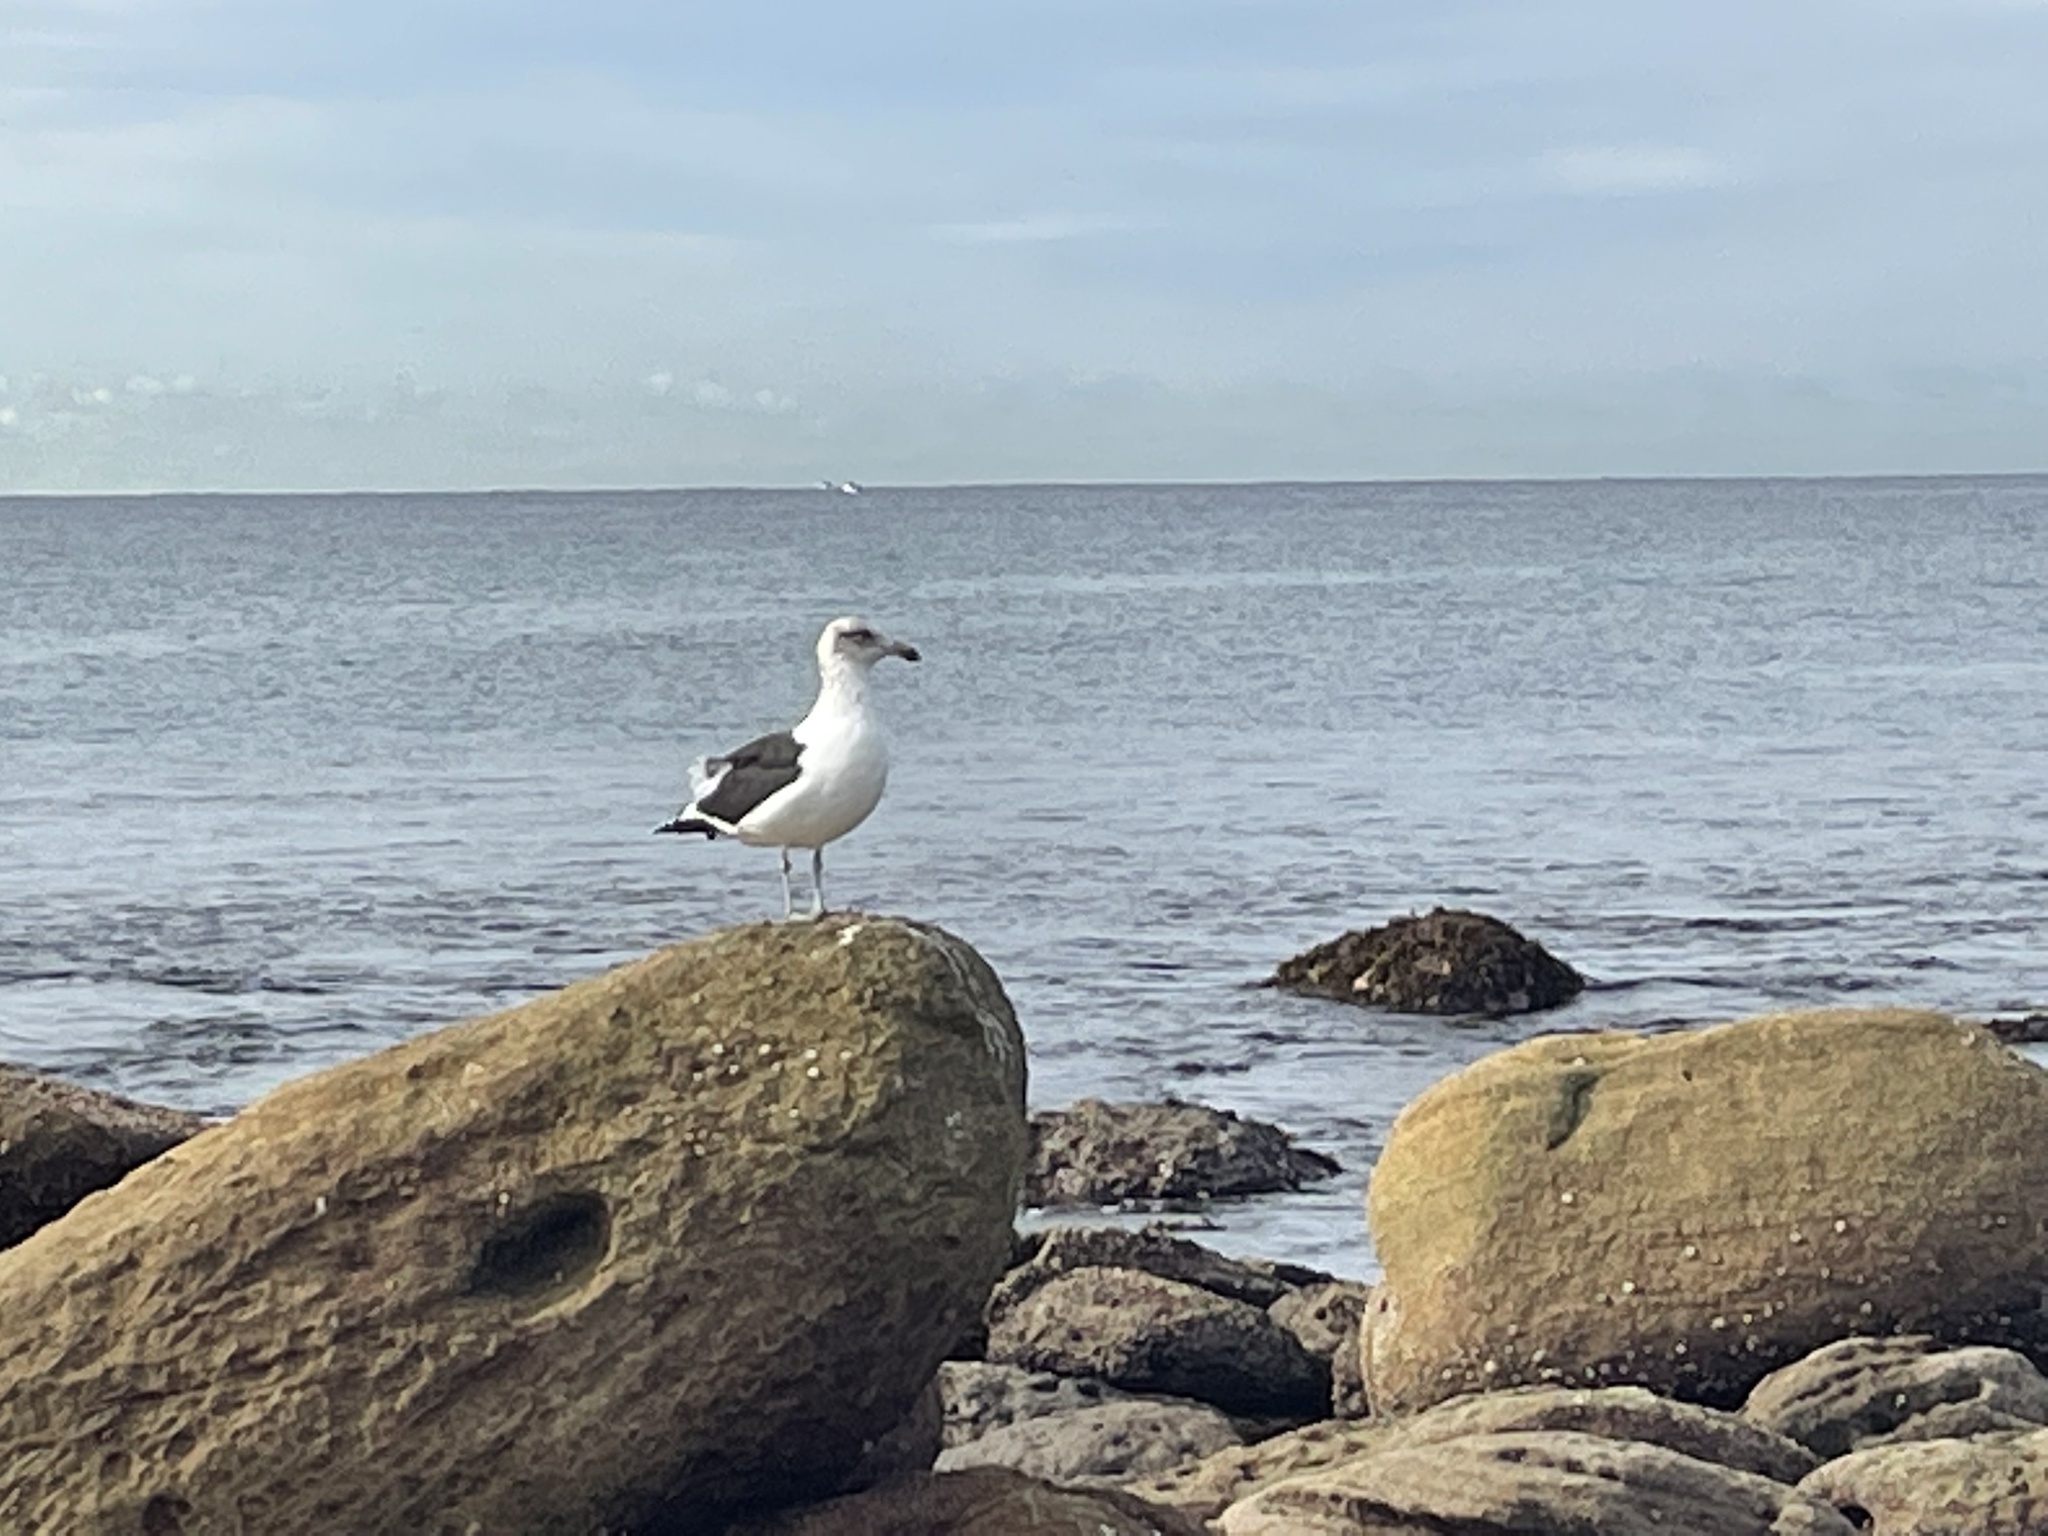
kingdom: Animalia
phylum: Chordata
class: Aves
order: Charadriiformes
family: Laridae
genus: Larus
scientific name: Larus dominicanus
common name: Kelp gull
